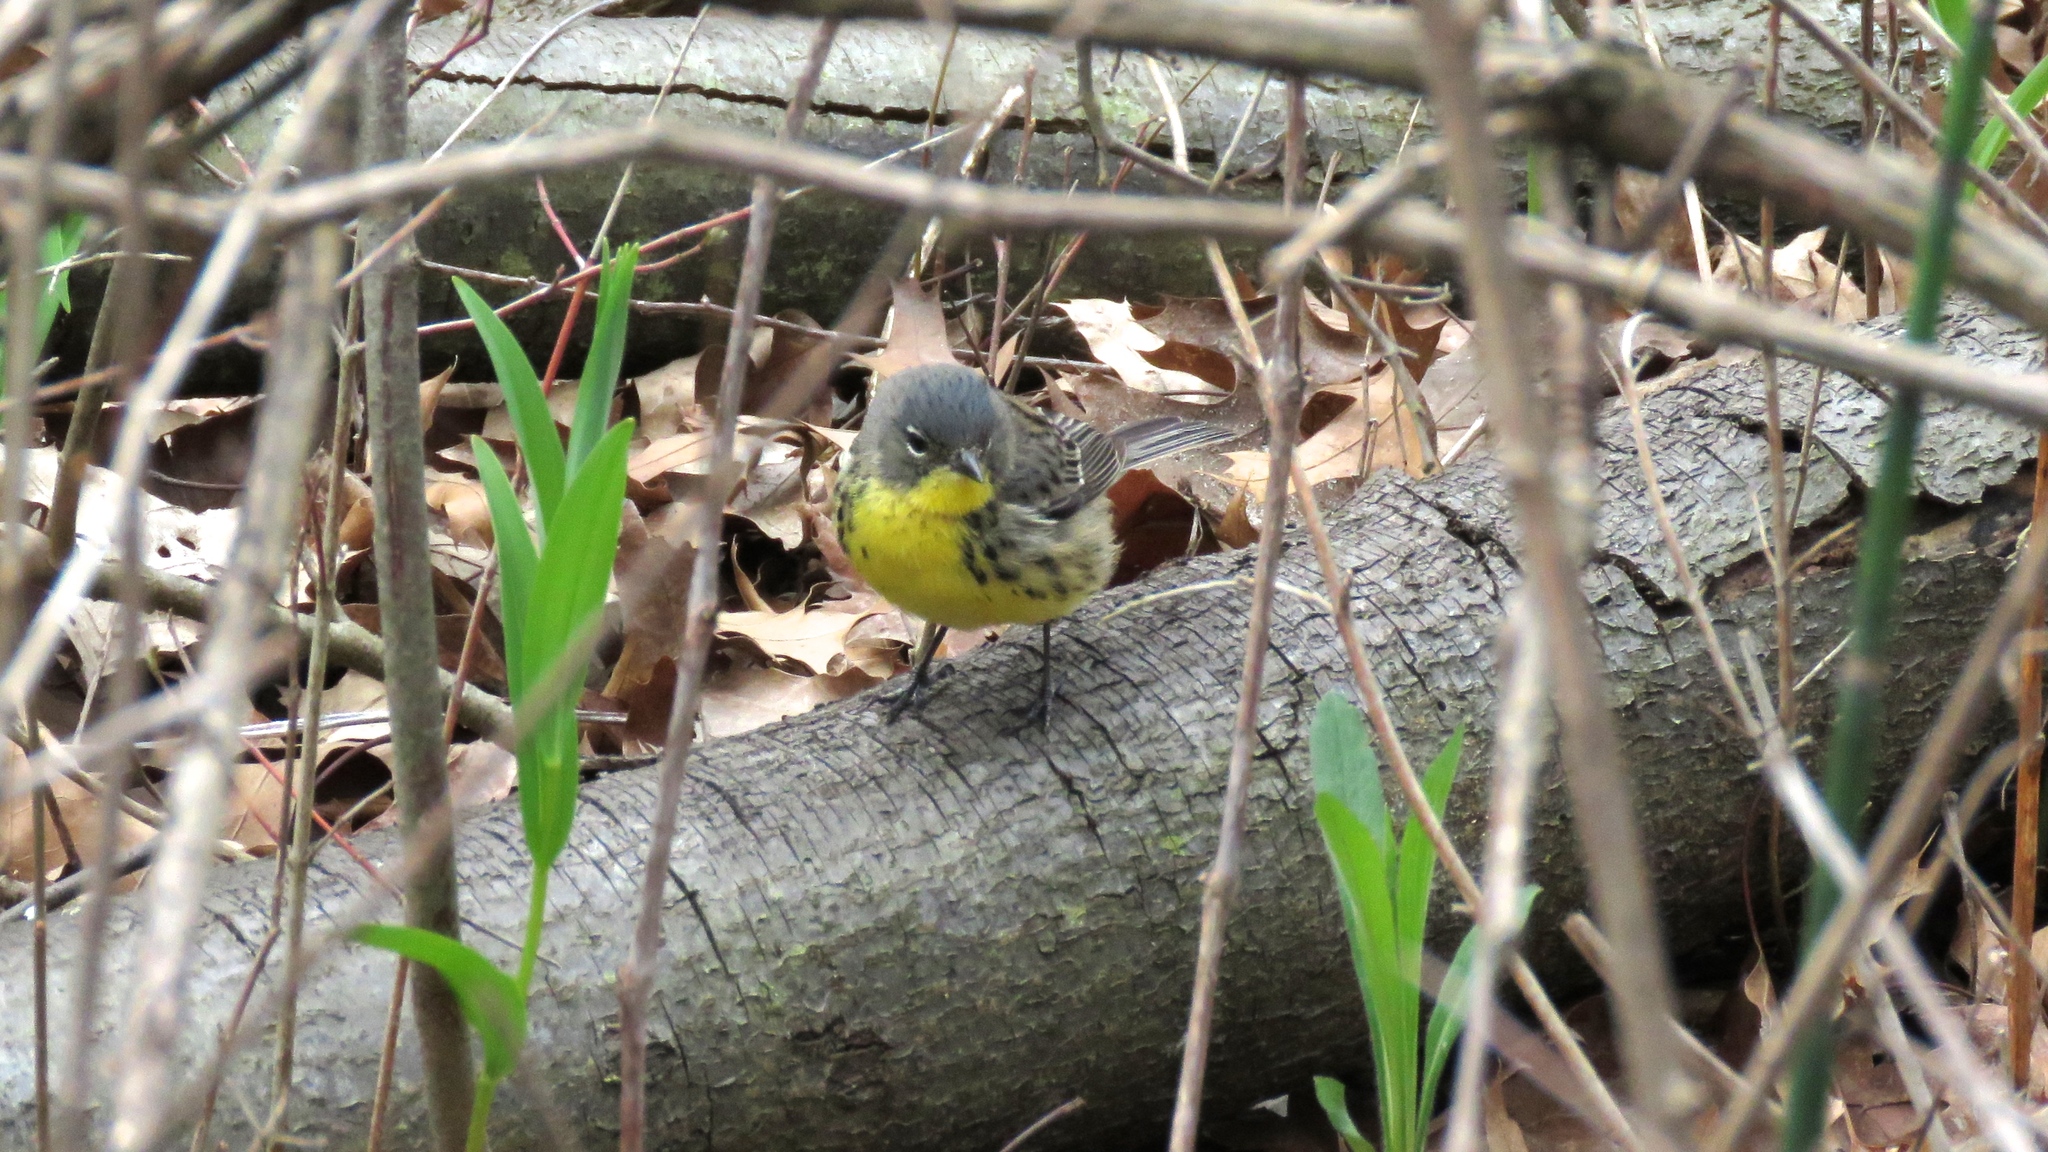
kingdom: Animalia
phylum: Chordata
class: Aves
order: Passeriformes
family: Parulidae
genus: Setophaga
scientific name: Setophaga kirtlandii
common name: Kirtland's warbler
